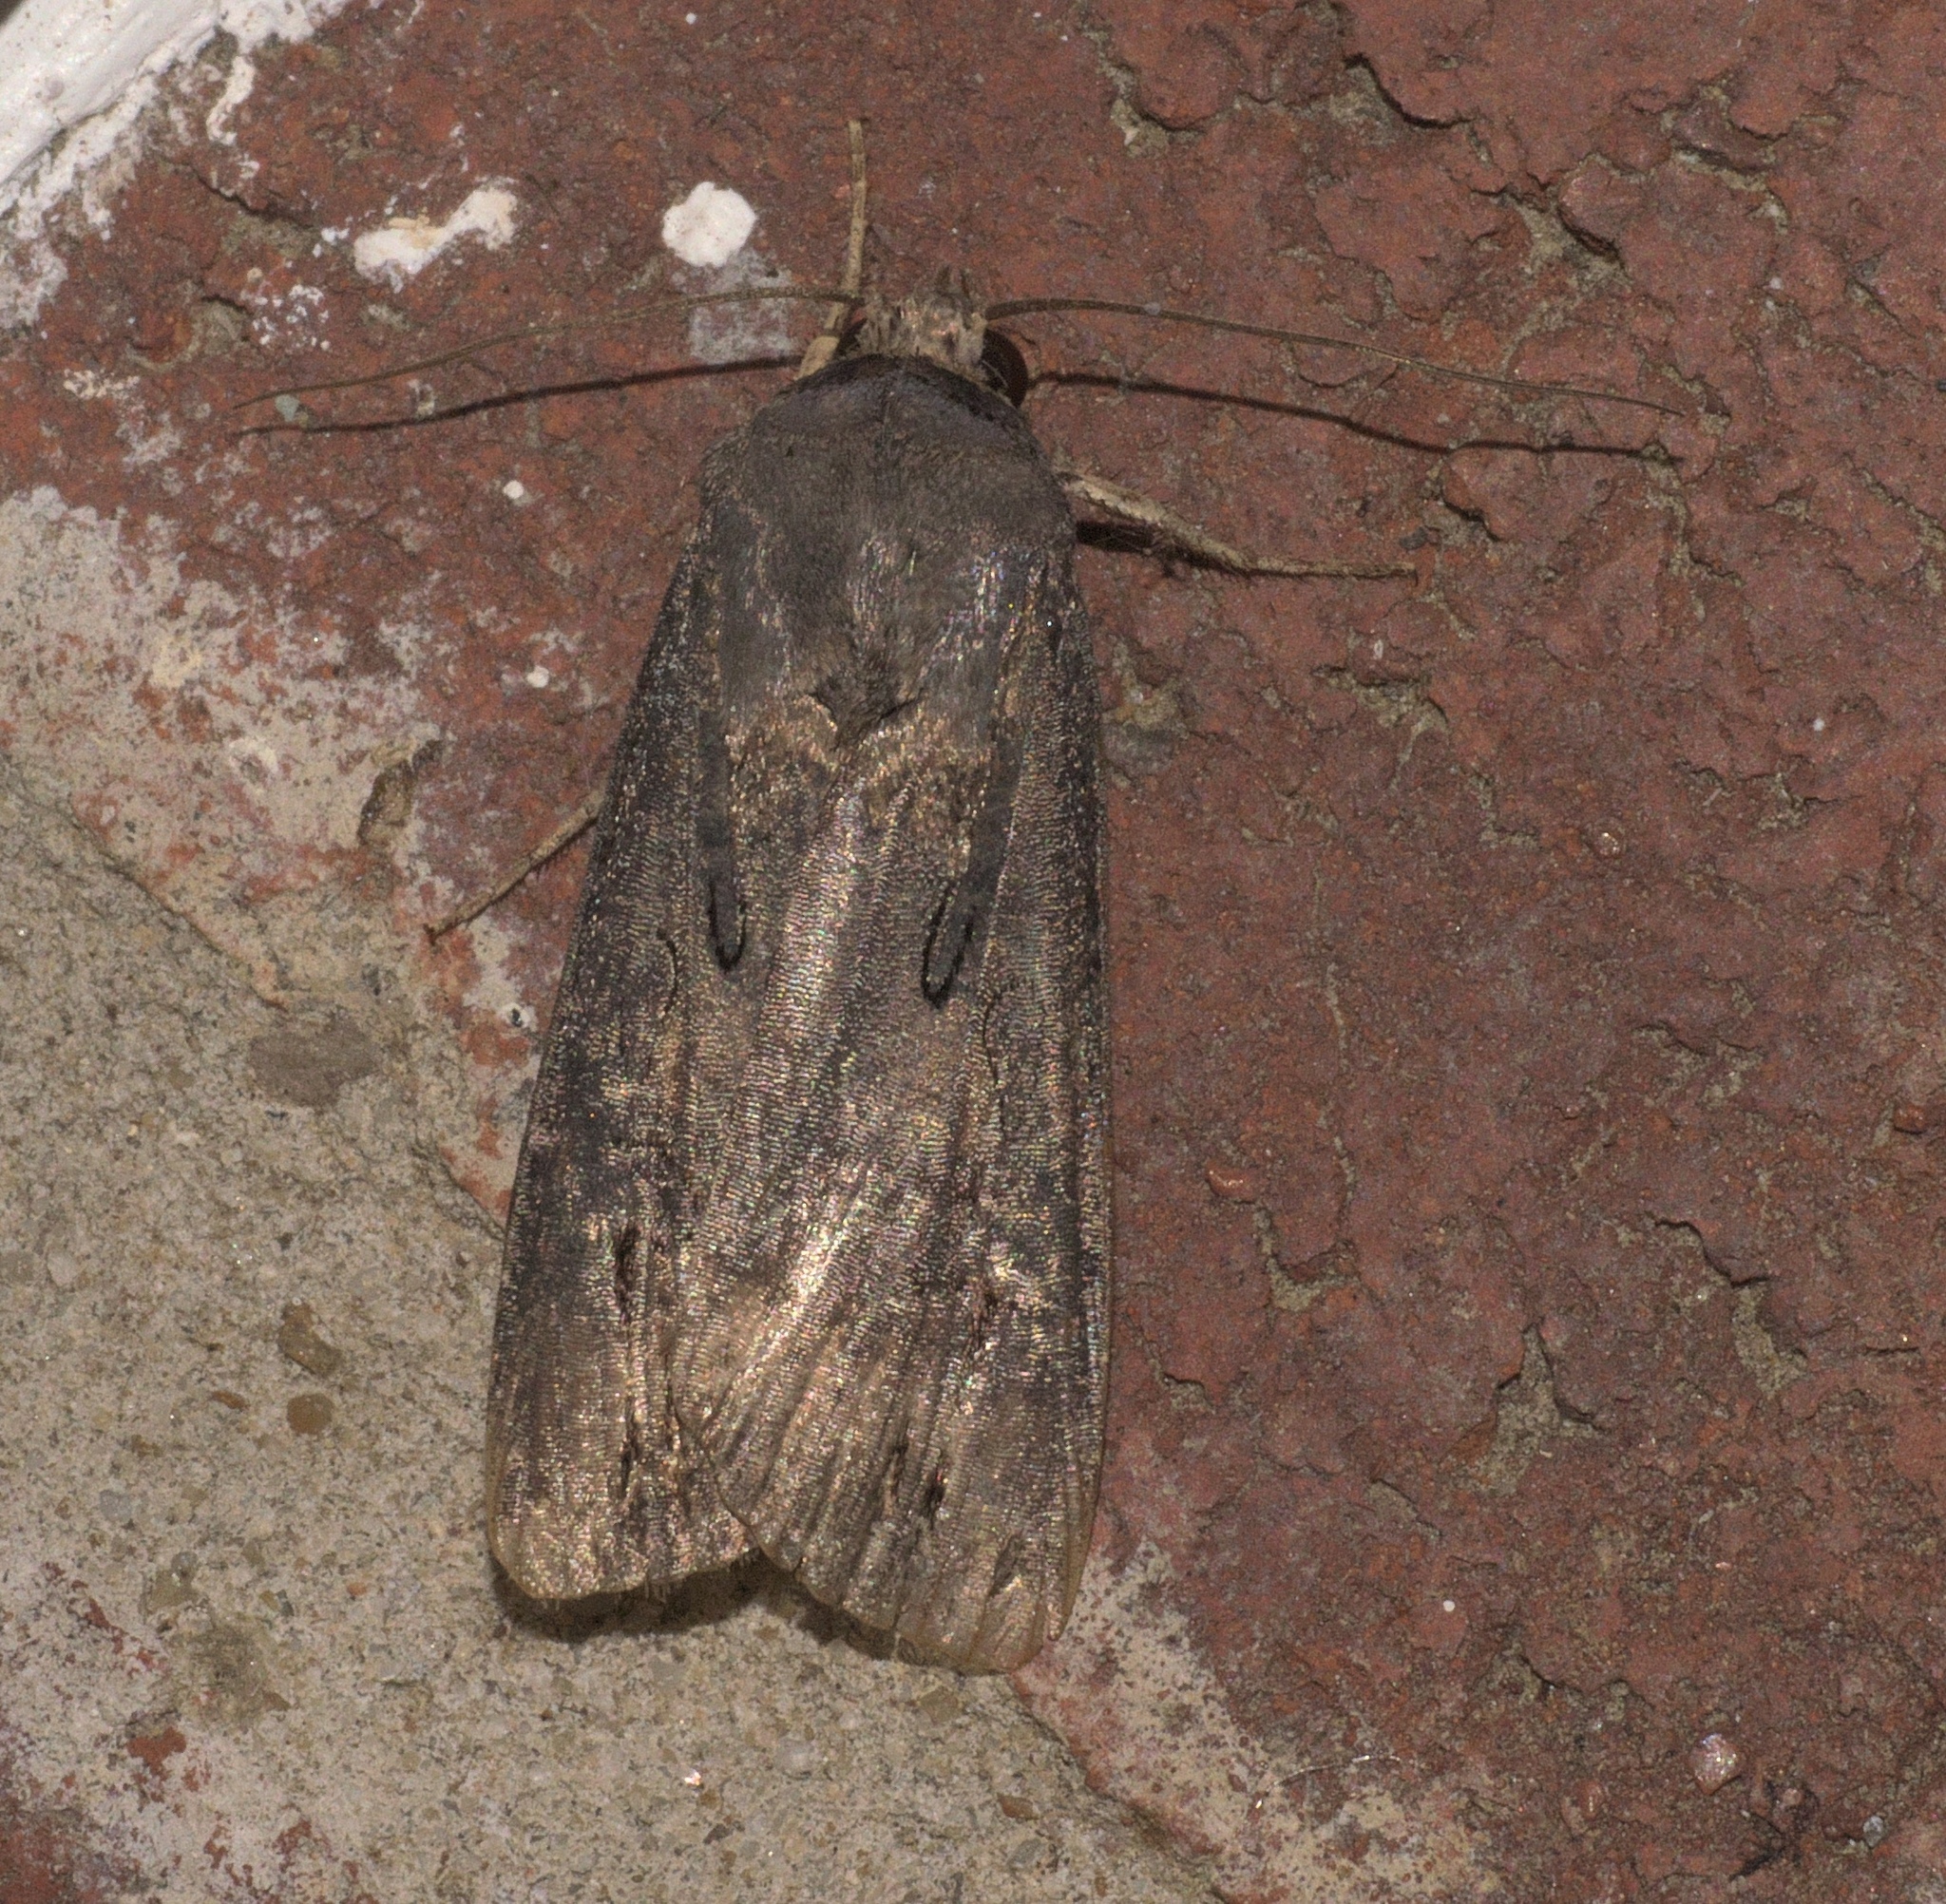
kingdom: Animalia
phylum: Arthropoda
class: Insecta
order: Lepidoptera
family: Noctuidae
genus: Agrotis
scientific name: Agrotis ipsilon
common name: Dark sword-grass
